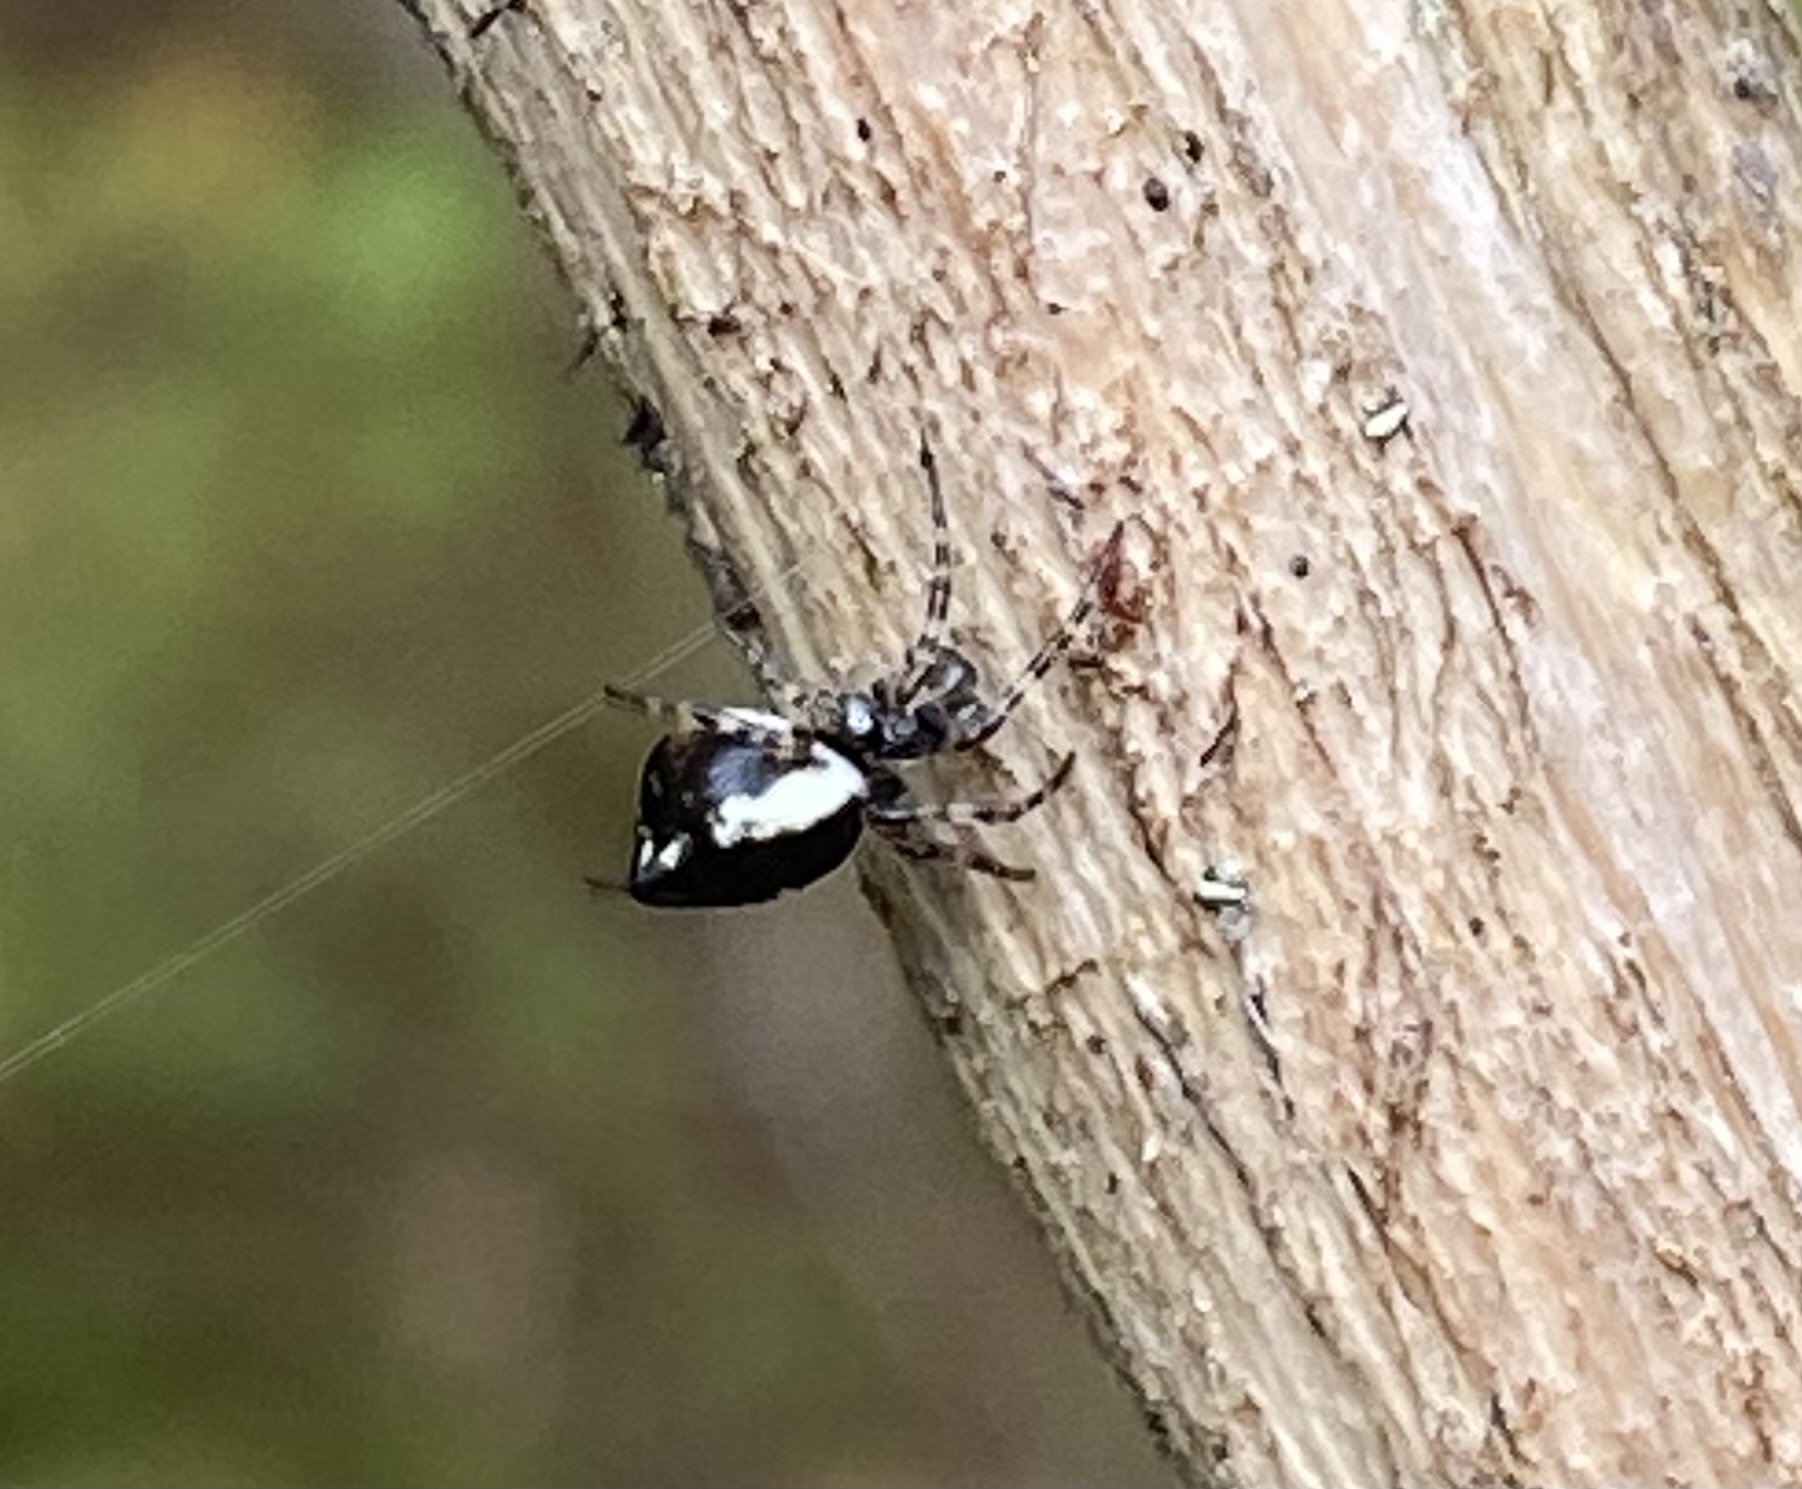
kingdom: Animalia
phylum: Arthropoda
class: Arachnida
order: Araneae
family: Araneidae
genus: Cyclosa
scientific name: Cyclosa conica
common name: Conical trashline orbweaver
